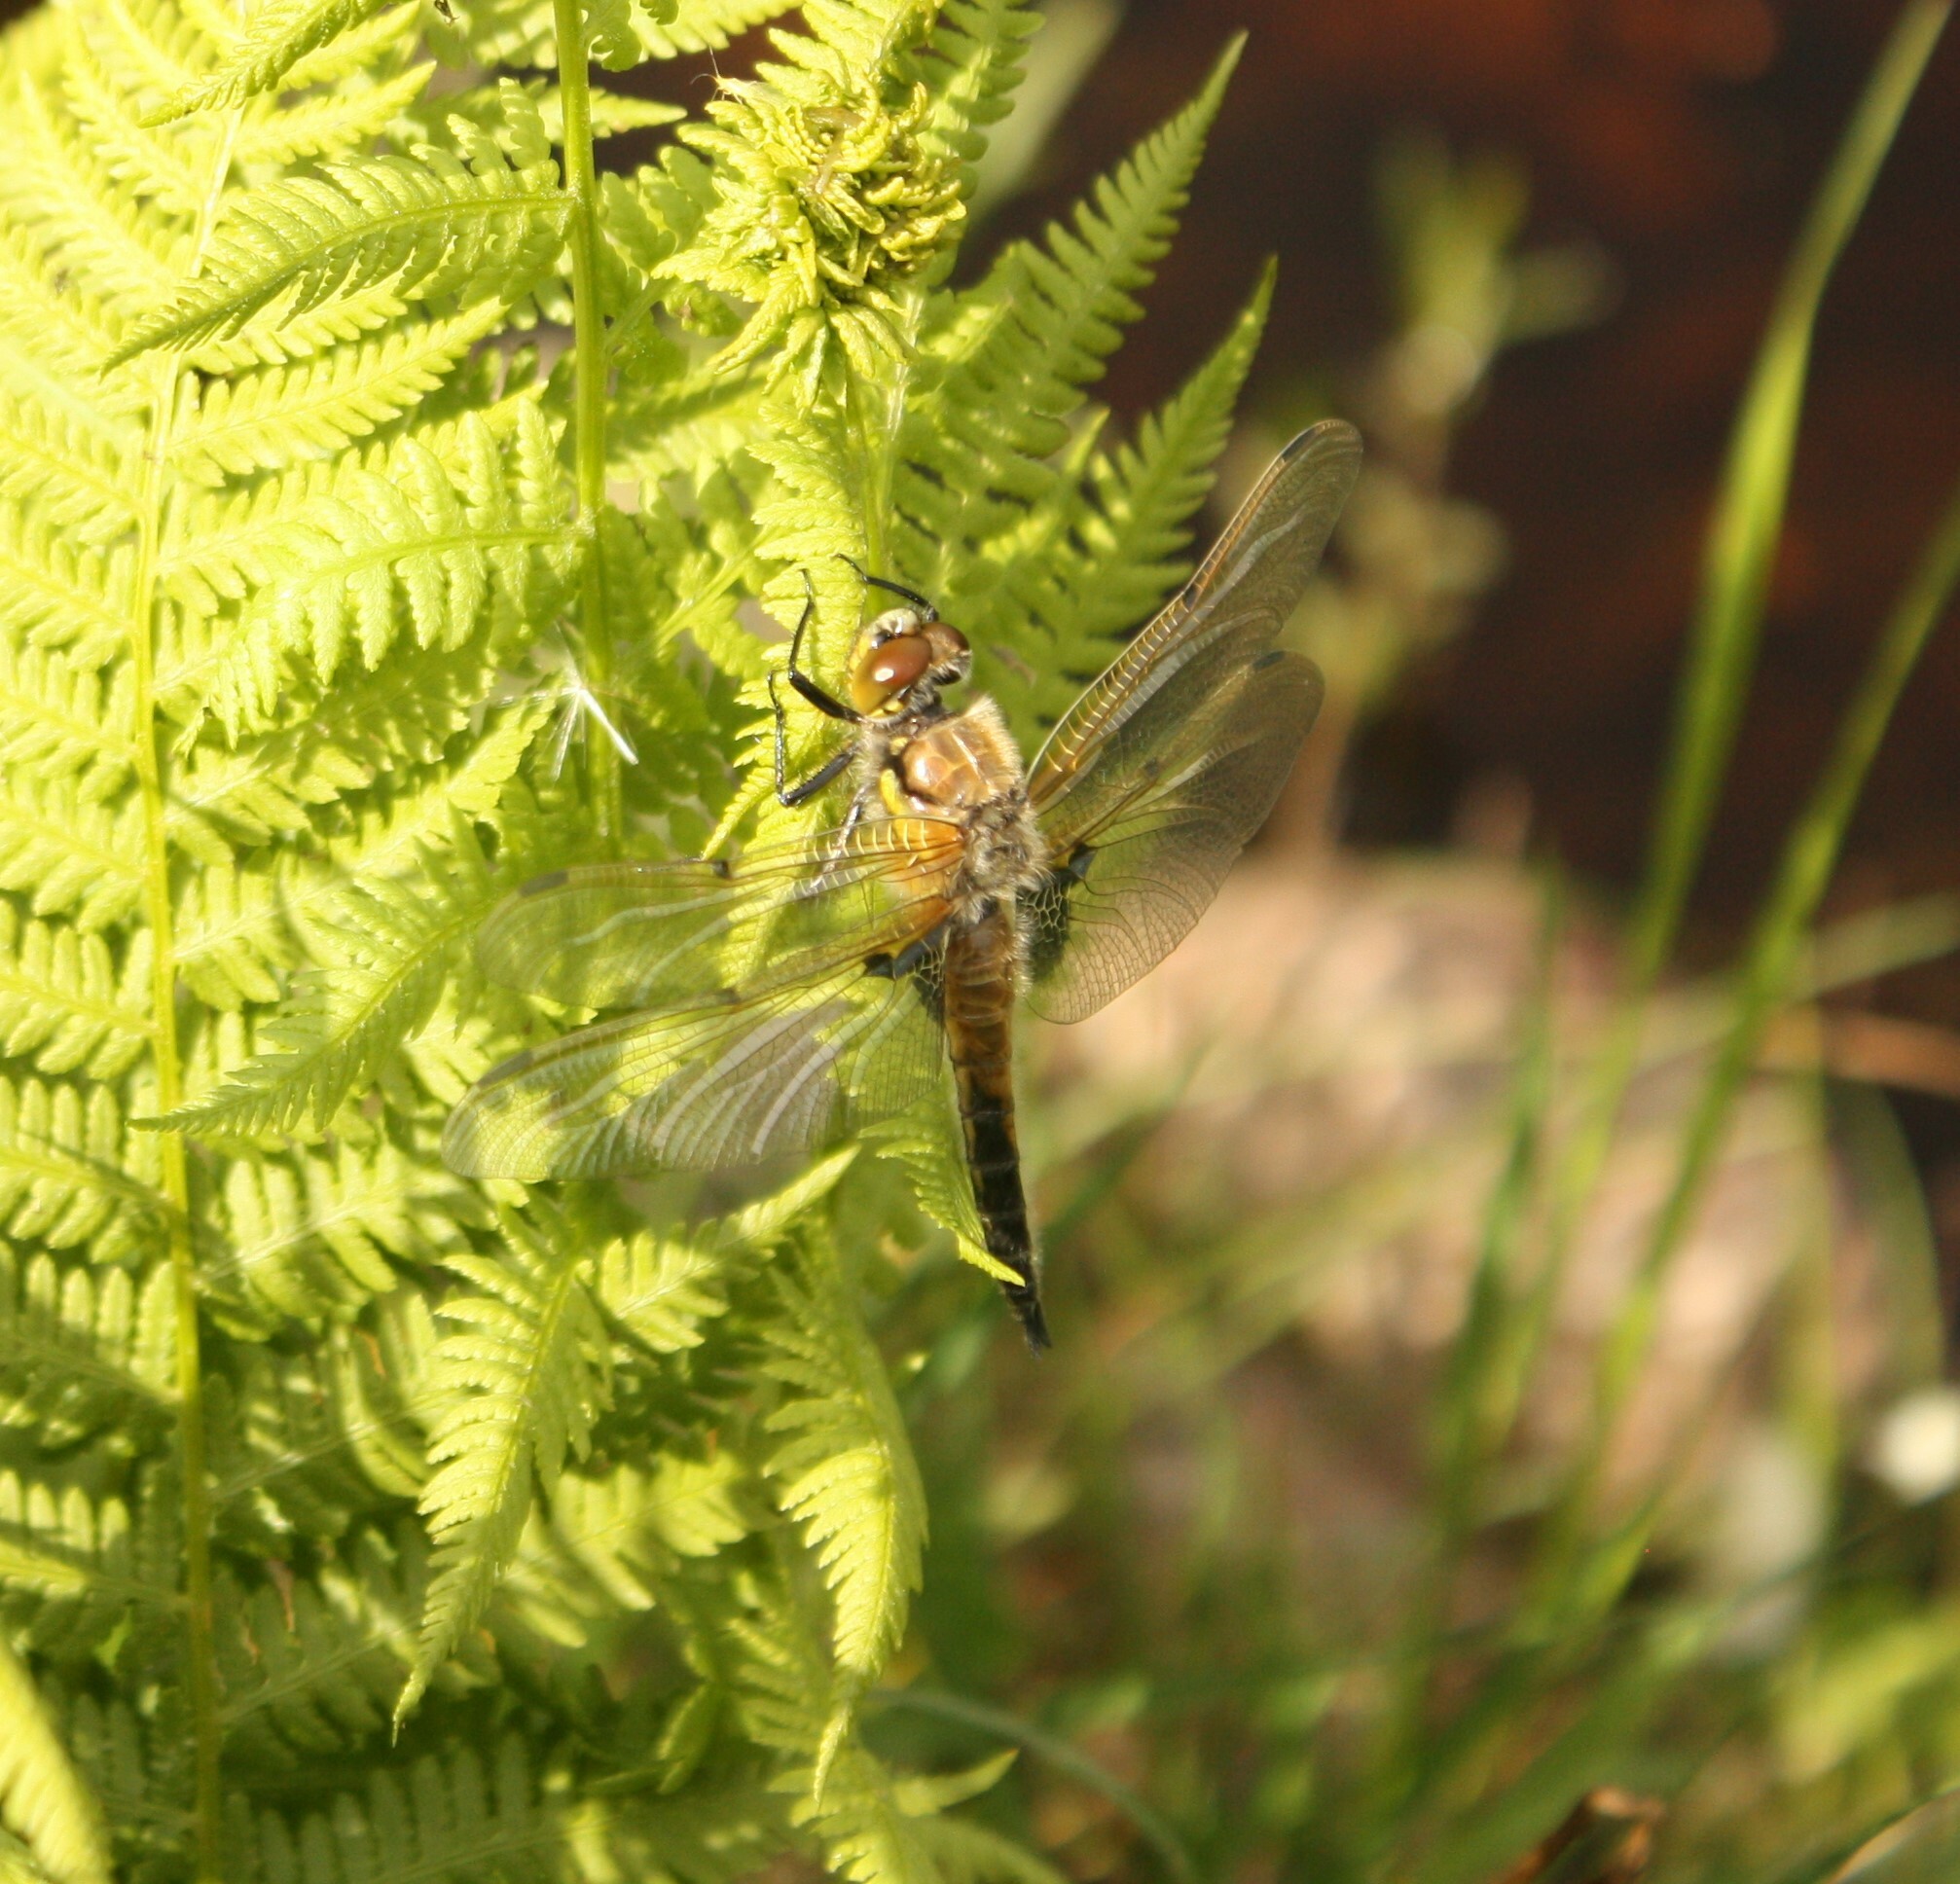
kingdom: Animalia
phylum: Arthropoda
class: Insecta
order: Odonata
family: Libellulidae
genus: Libellula
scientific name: Libellula quadrimaculata
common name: Four-spotted chaser
